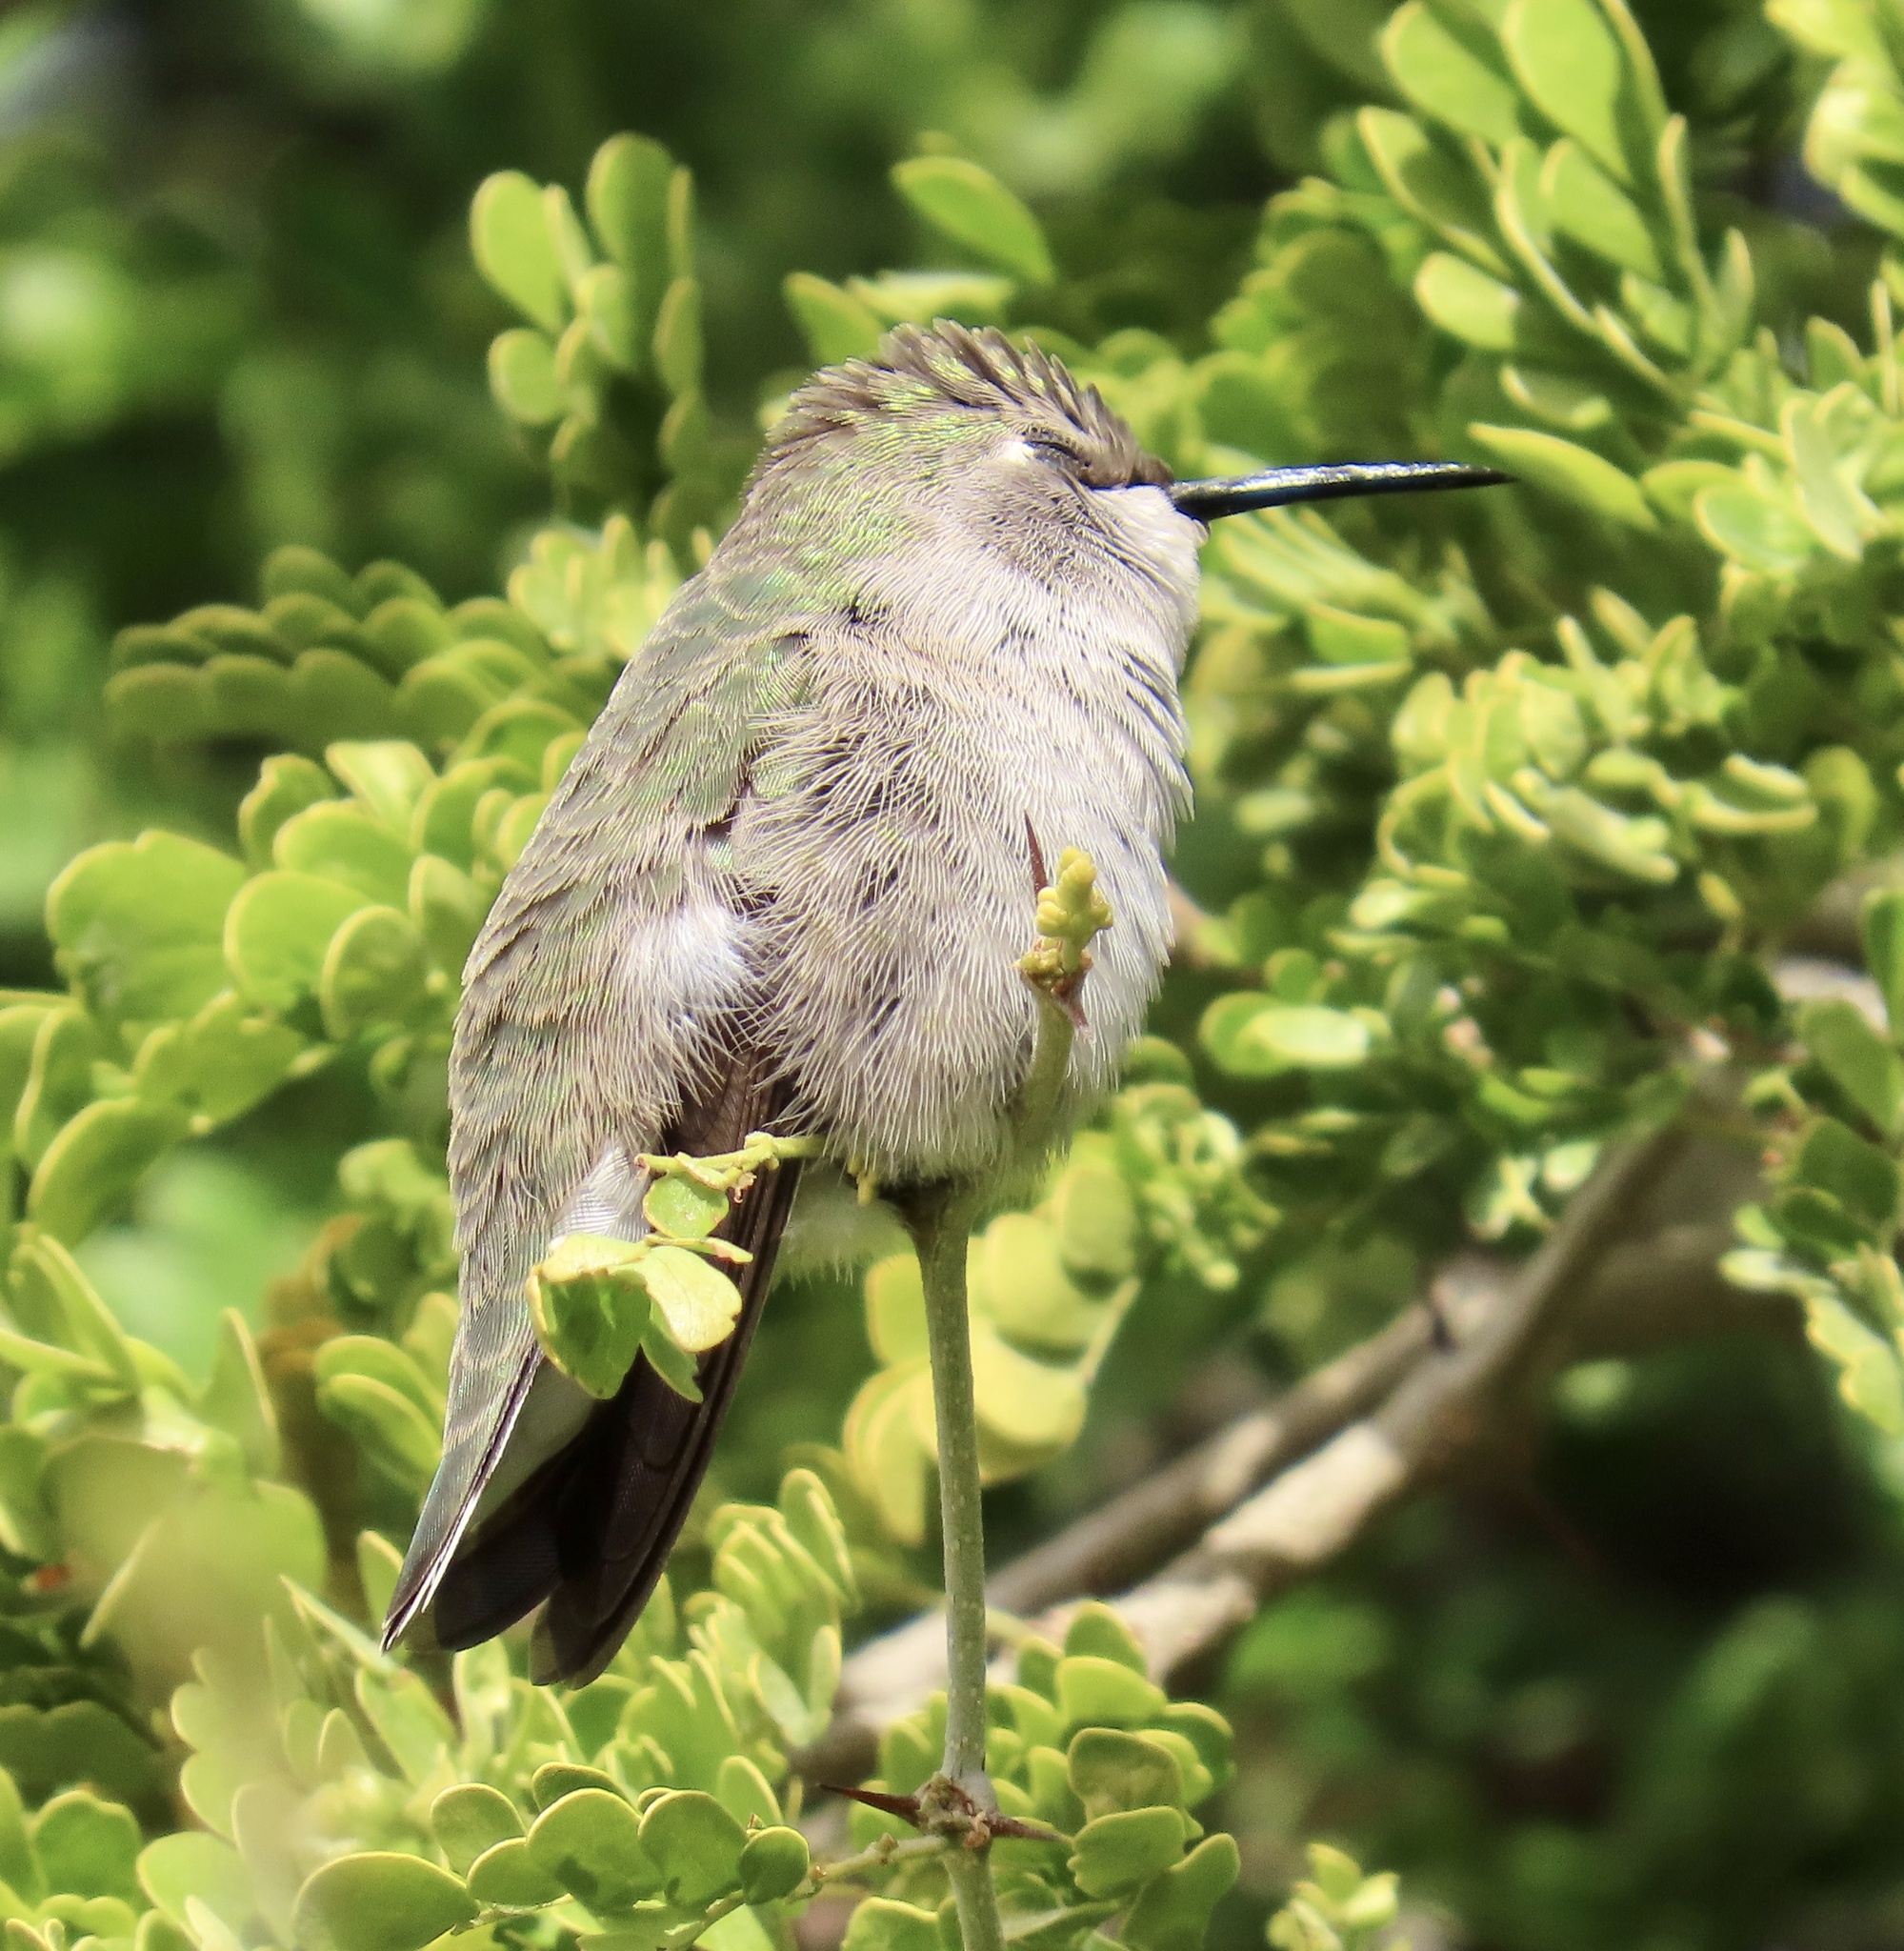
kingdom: Animalia
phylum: Chordata
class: Aves
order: Apodiformes
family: Trochilidae
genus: Calypte
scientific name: Calypte costae
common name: Costa's hummingbird
